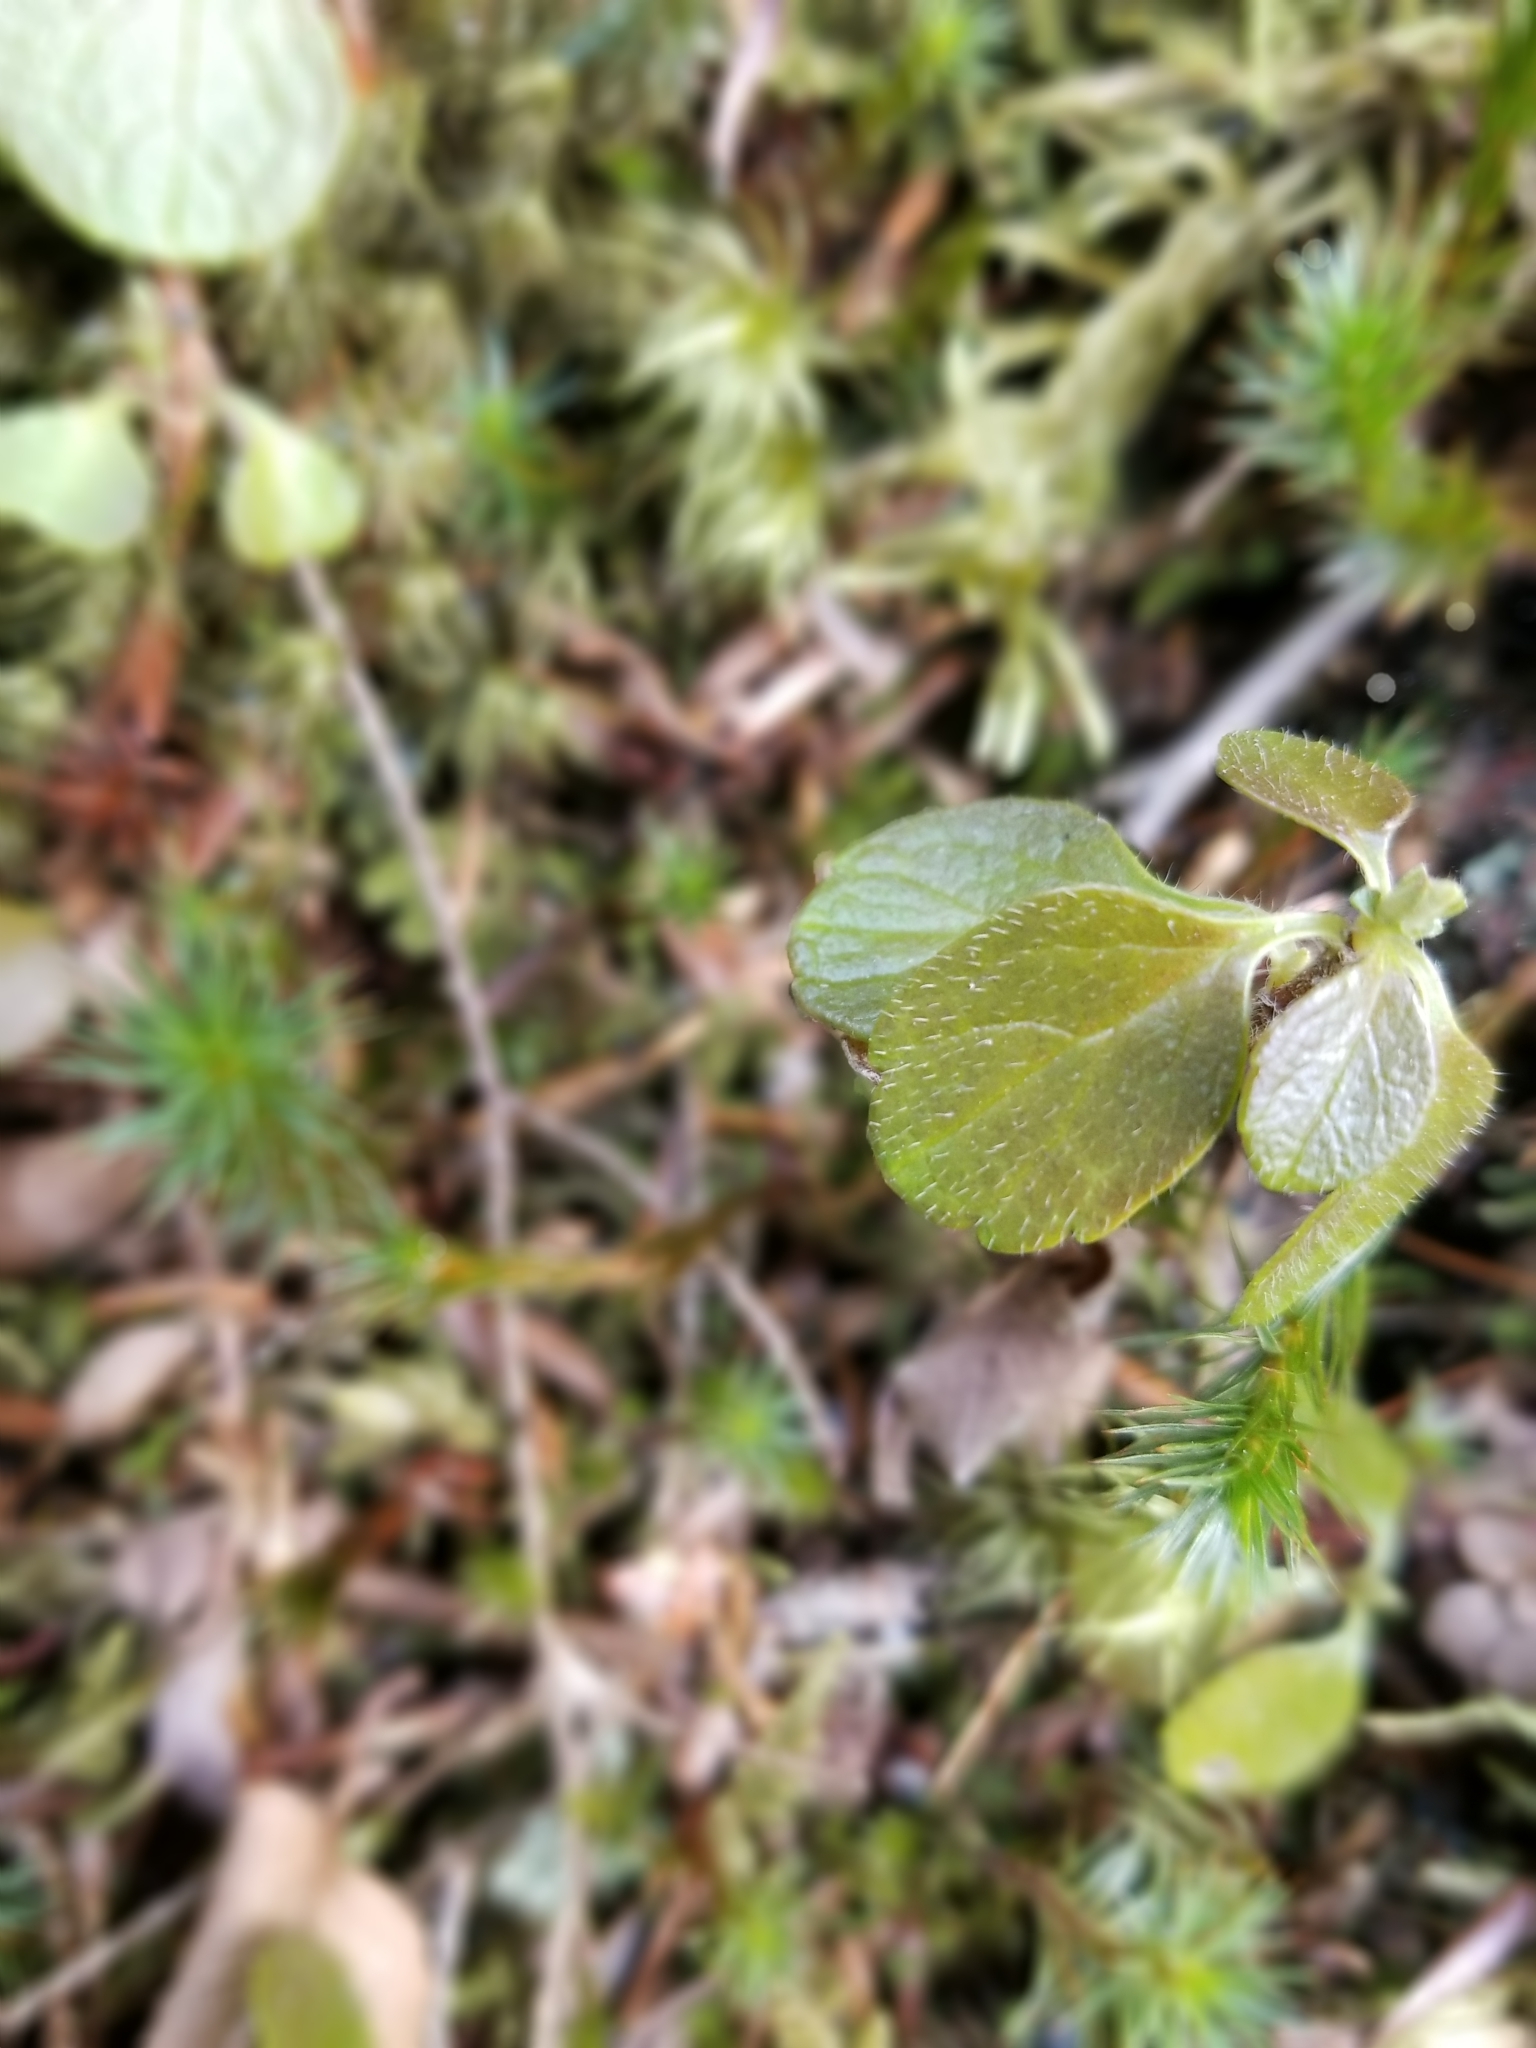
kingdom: Plantae
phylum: Tracheophyta
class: Magnoliopsida
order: Dipsacales
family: Caprifoliaceae
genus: Linnaea
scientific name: Linnaea borealis
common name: Twinflower
